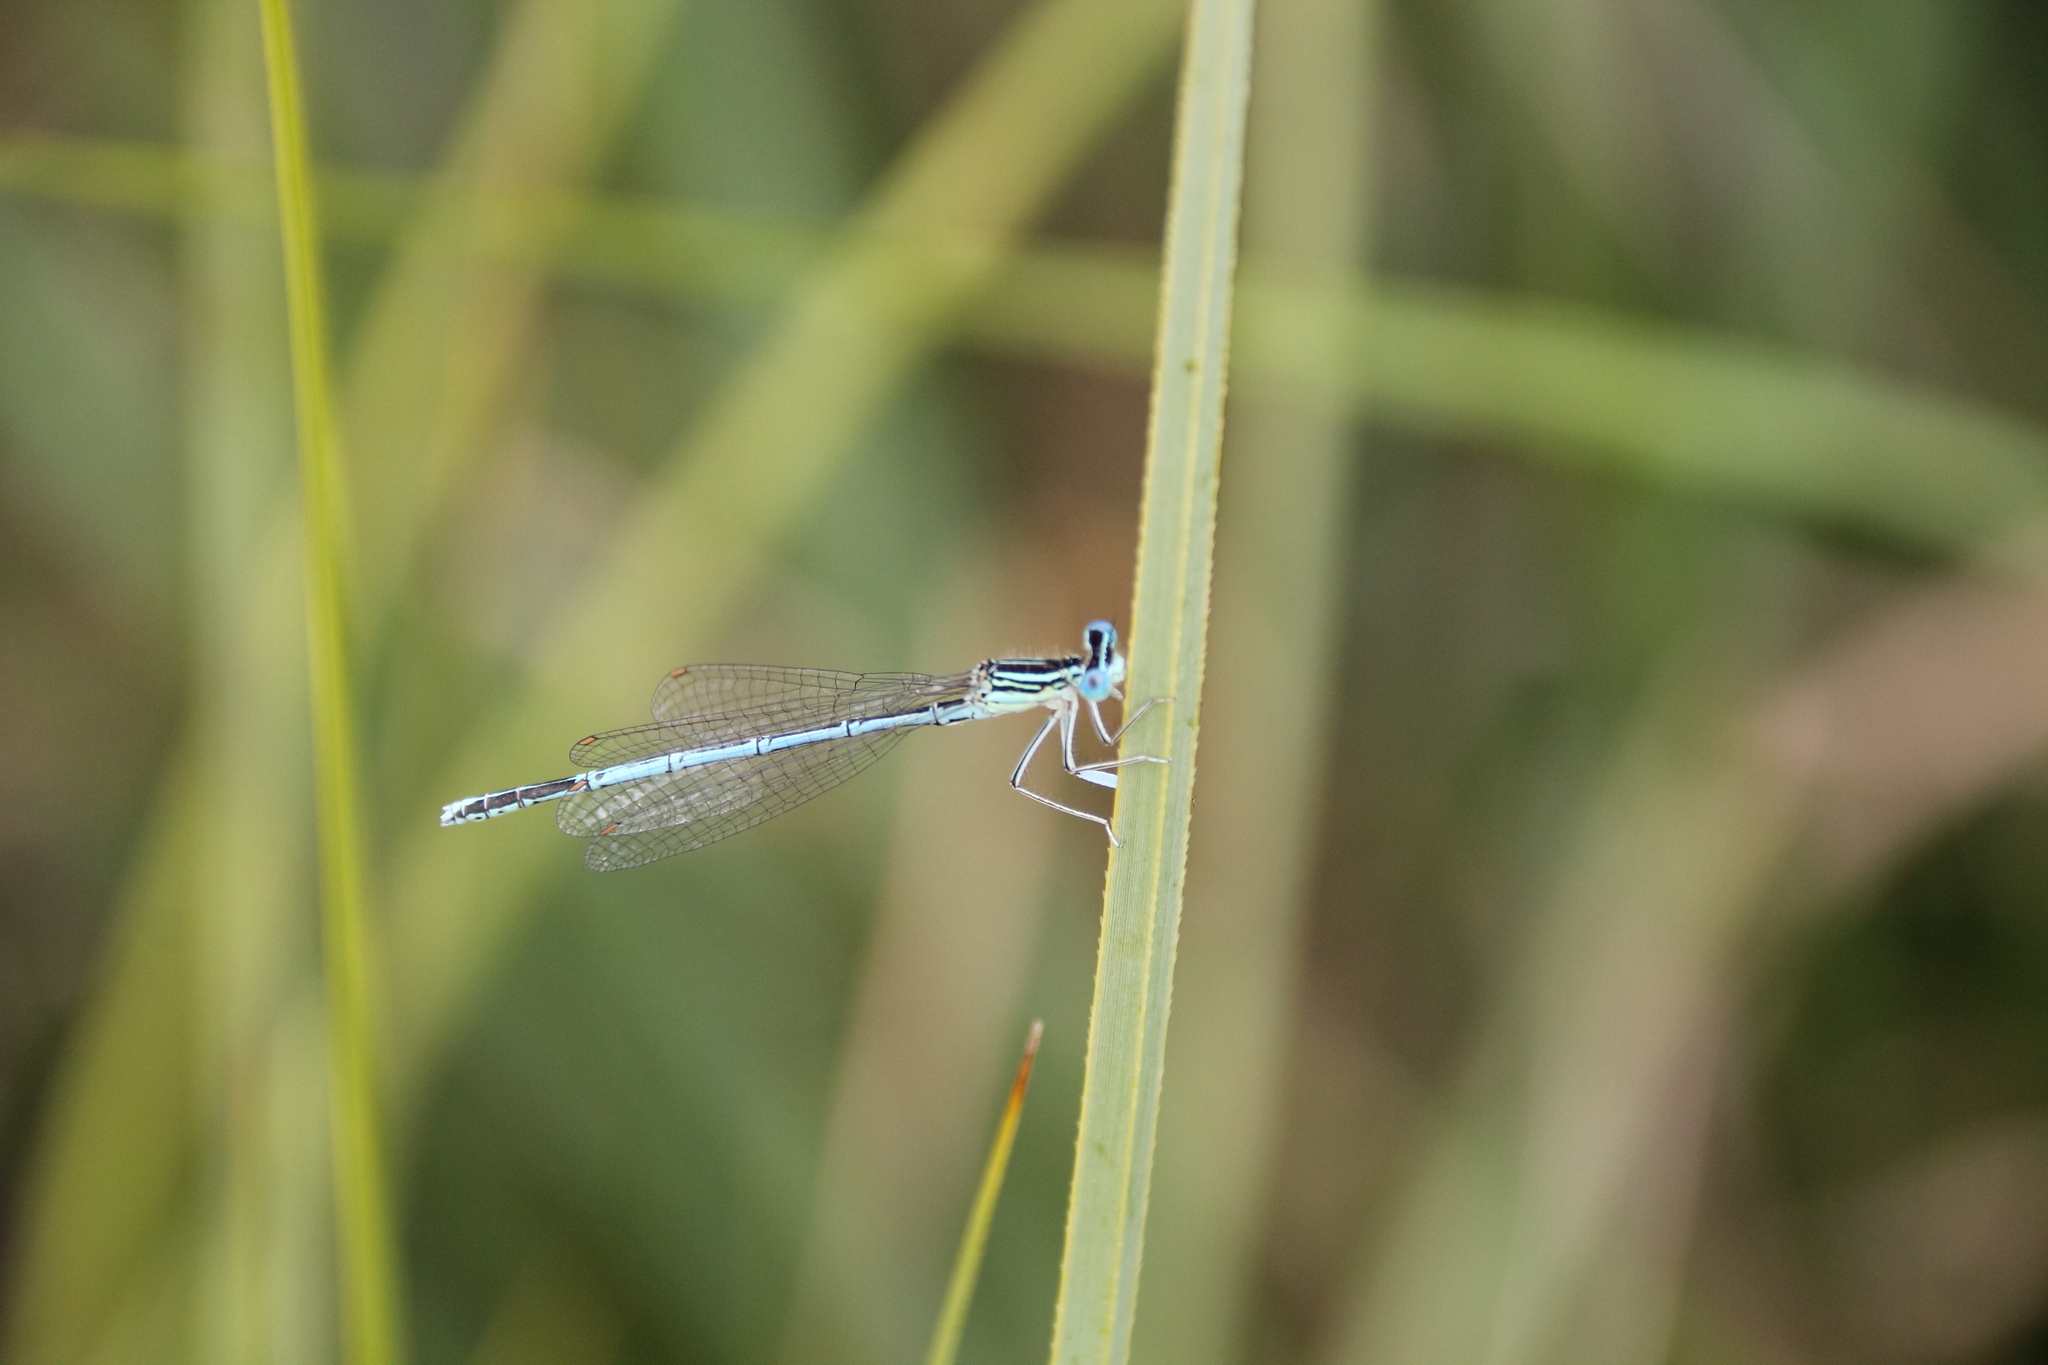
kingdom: Animalia
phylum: Arthropoda
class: Insecta
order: Odonata
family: Platycnemididae
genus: Platycnemis
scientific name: Platycnemis pennipes
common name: White-legged damselfly
